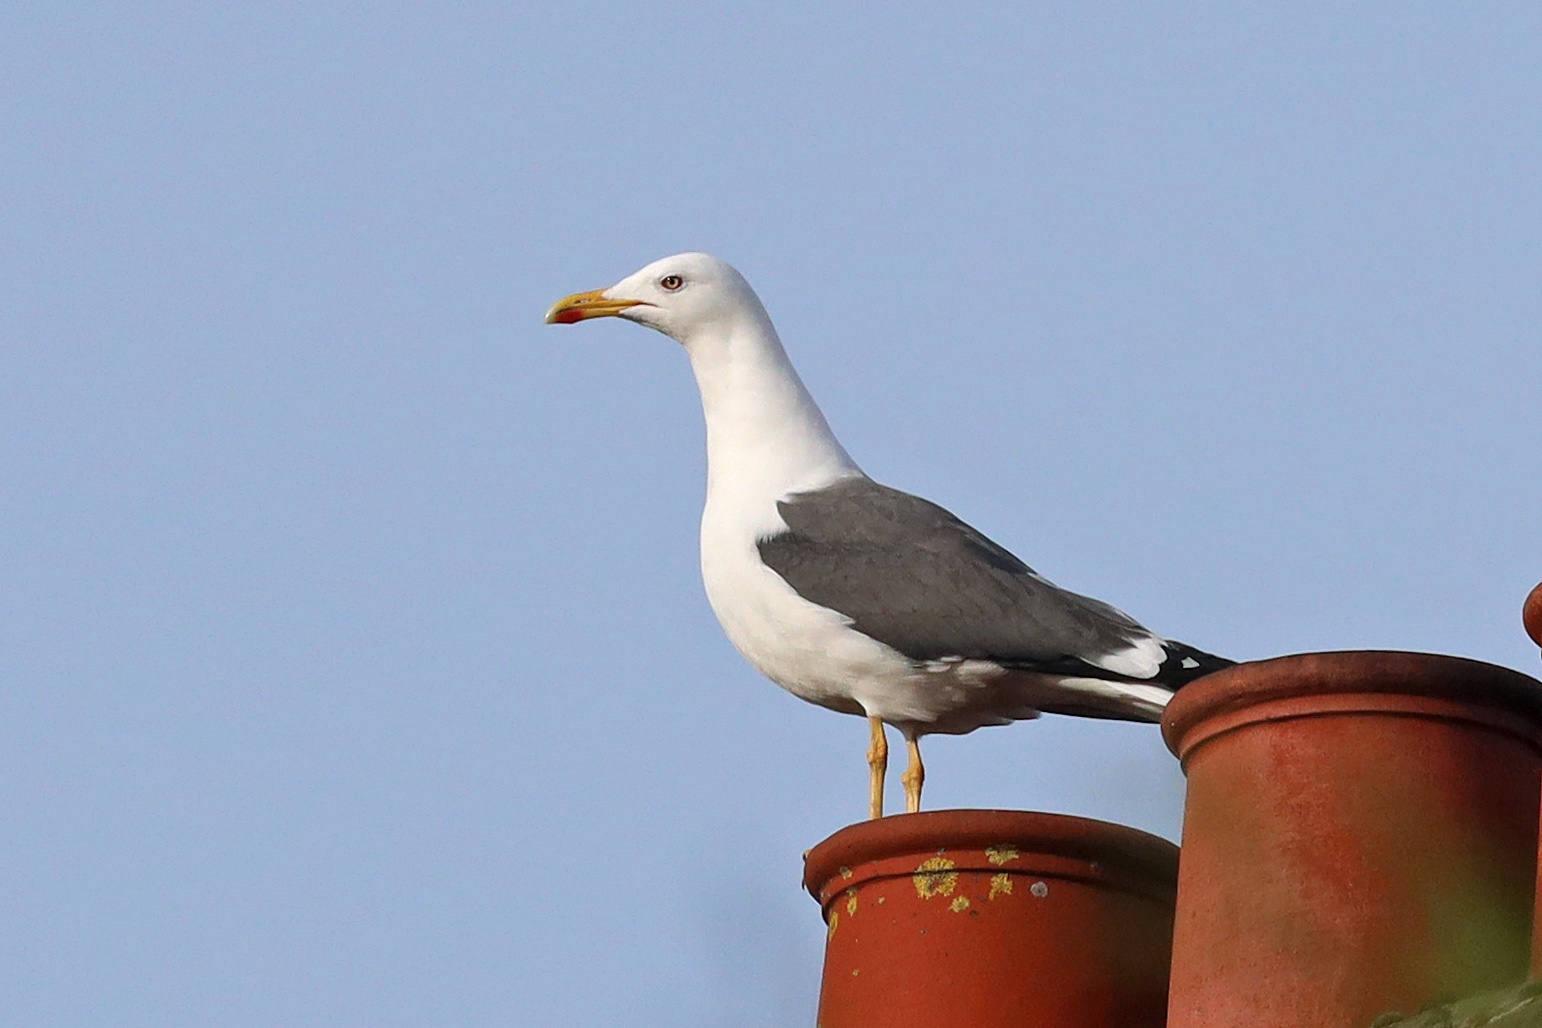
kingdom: Animalia
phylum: Chordata
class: Aves
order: Charadriiformes
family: Laridae
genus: Larus
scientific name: Larus fuscus
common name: Lesser black-backed gull
